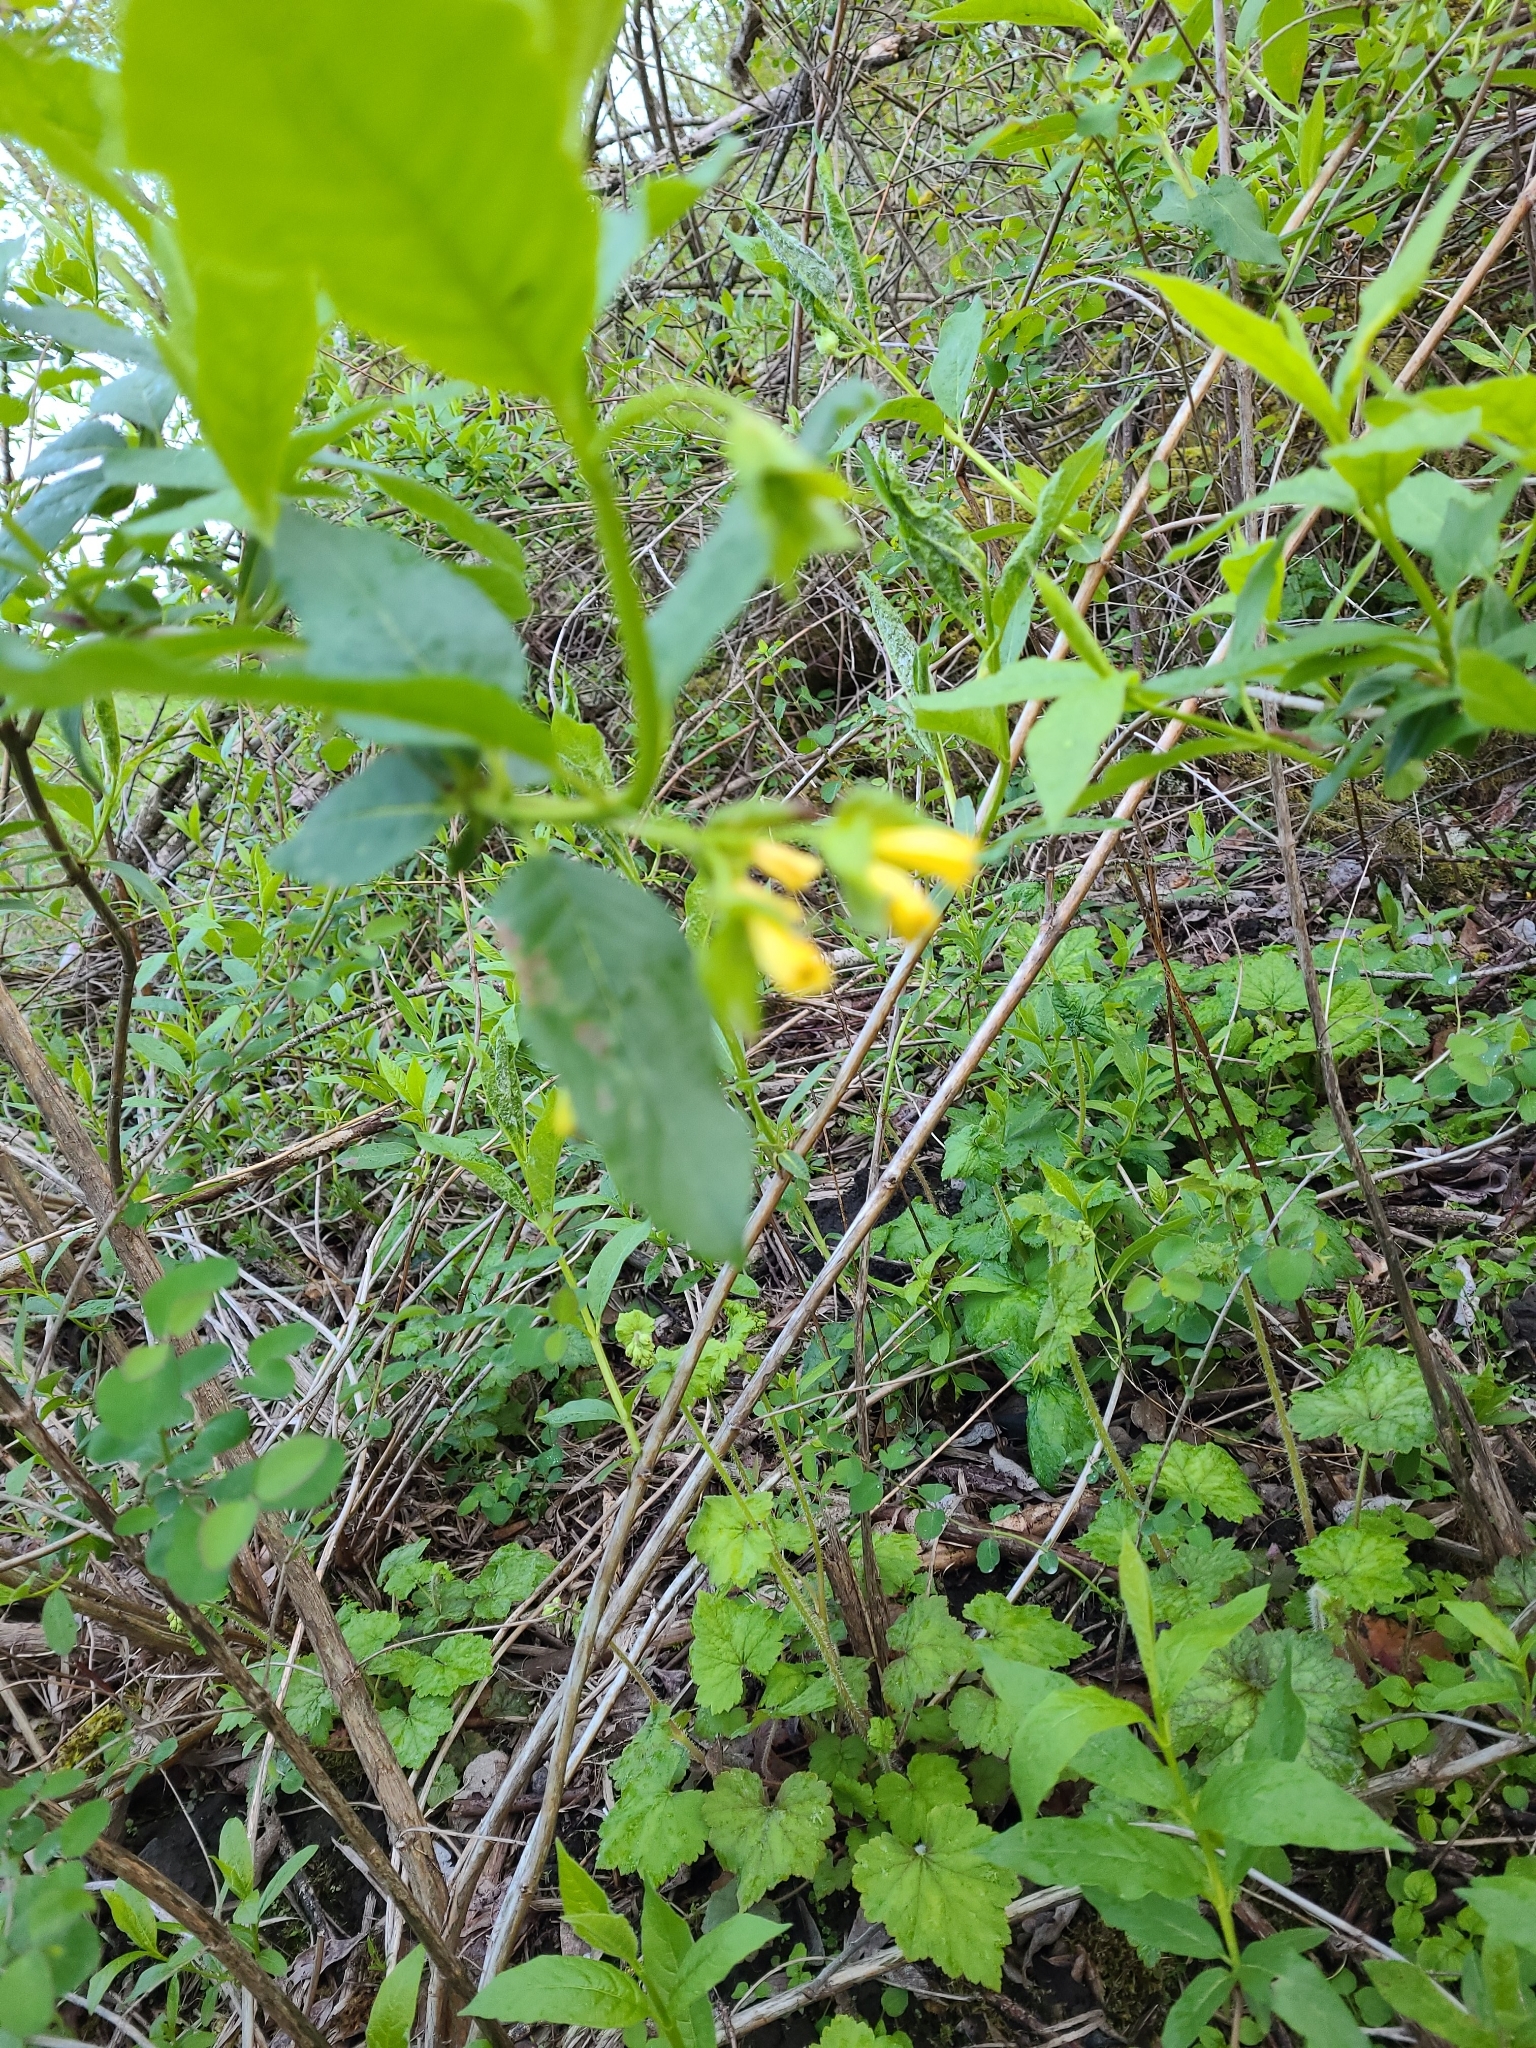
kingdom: Plantae
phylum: Tracheophyta
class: Magnoliopsida
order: Dipsacales
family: Caprifoliaceae
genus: Lonicera
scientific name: Lonicera involucrata
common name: Californian honeysuckle
